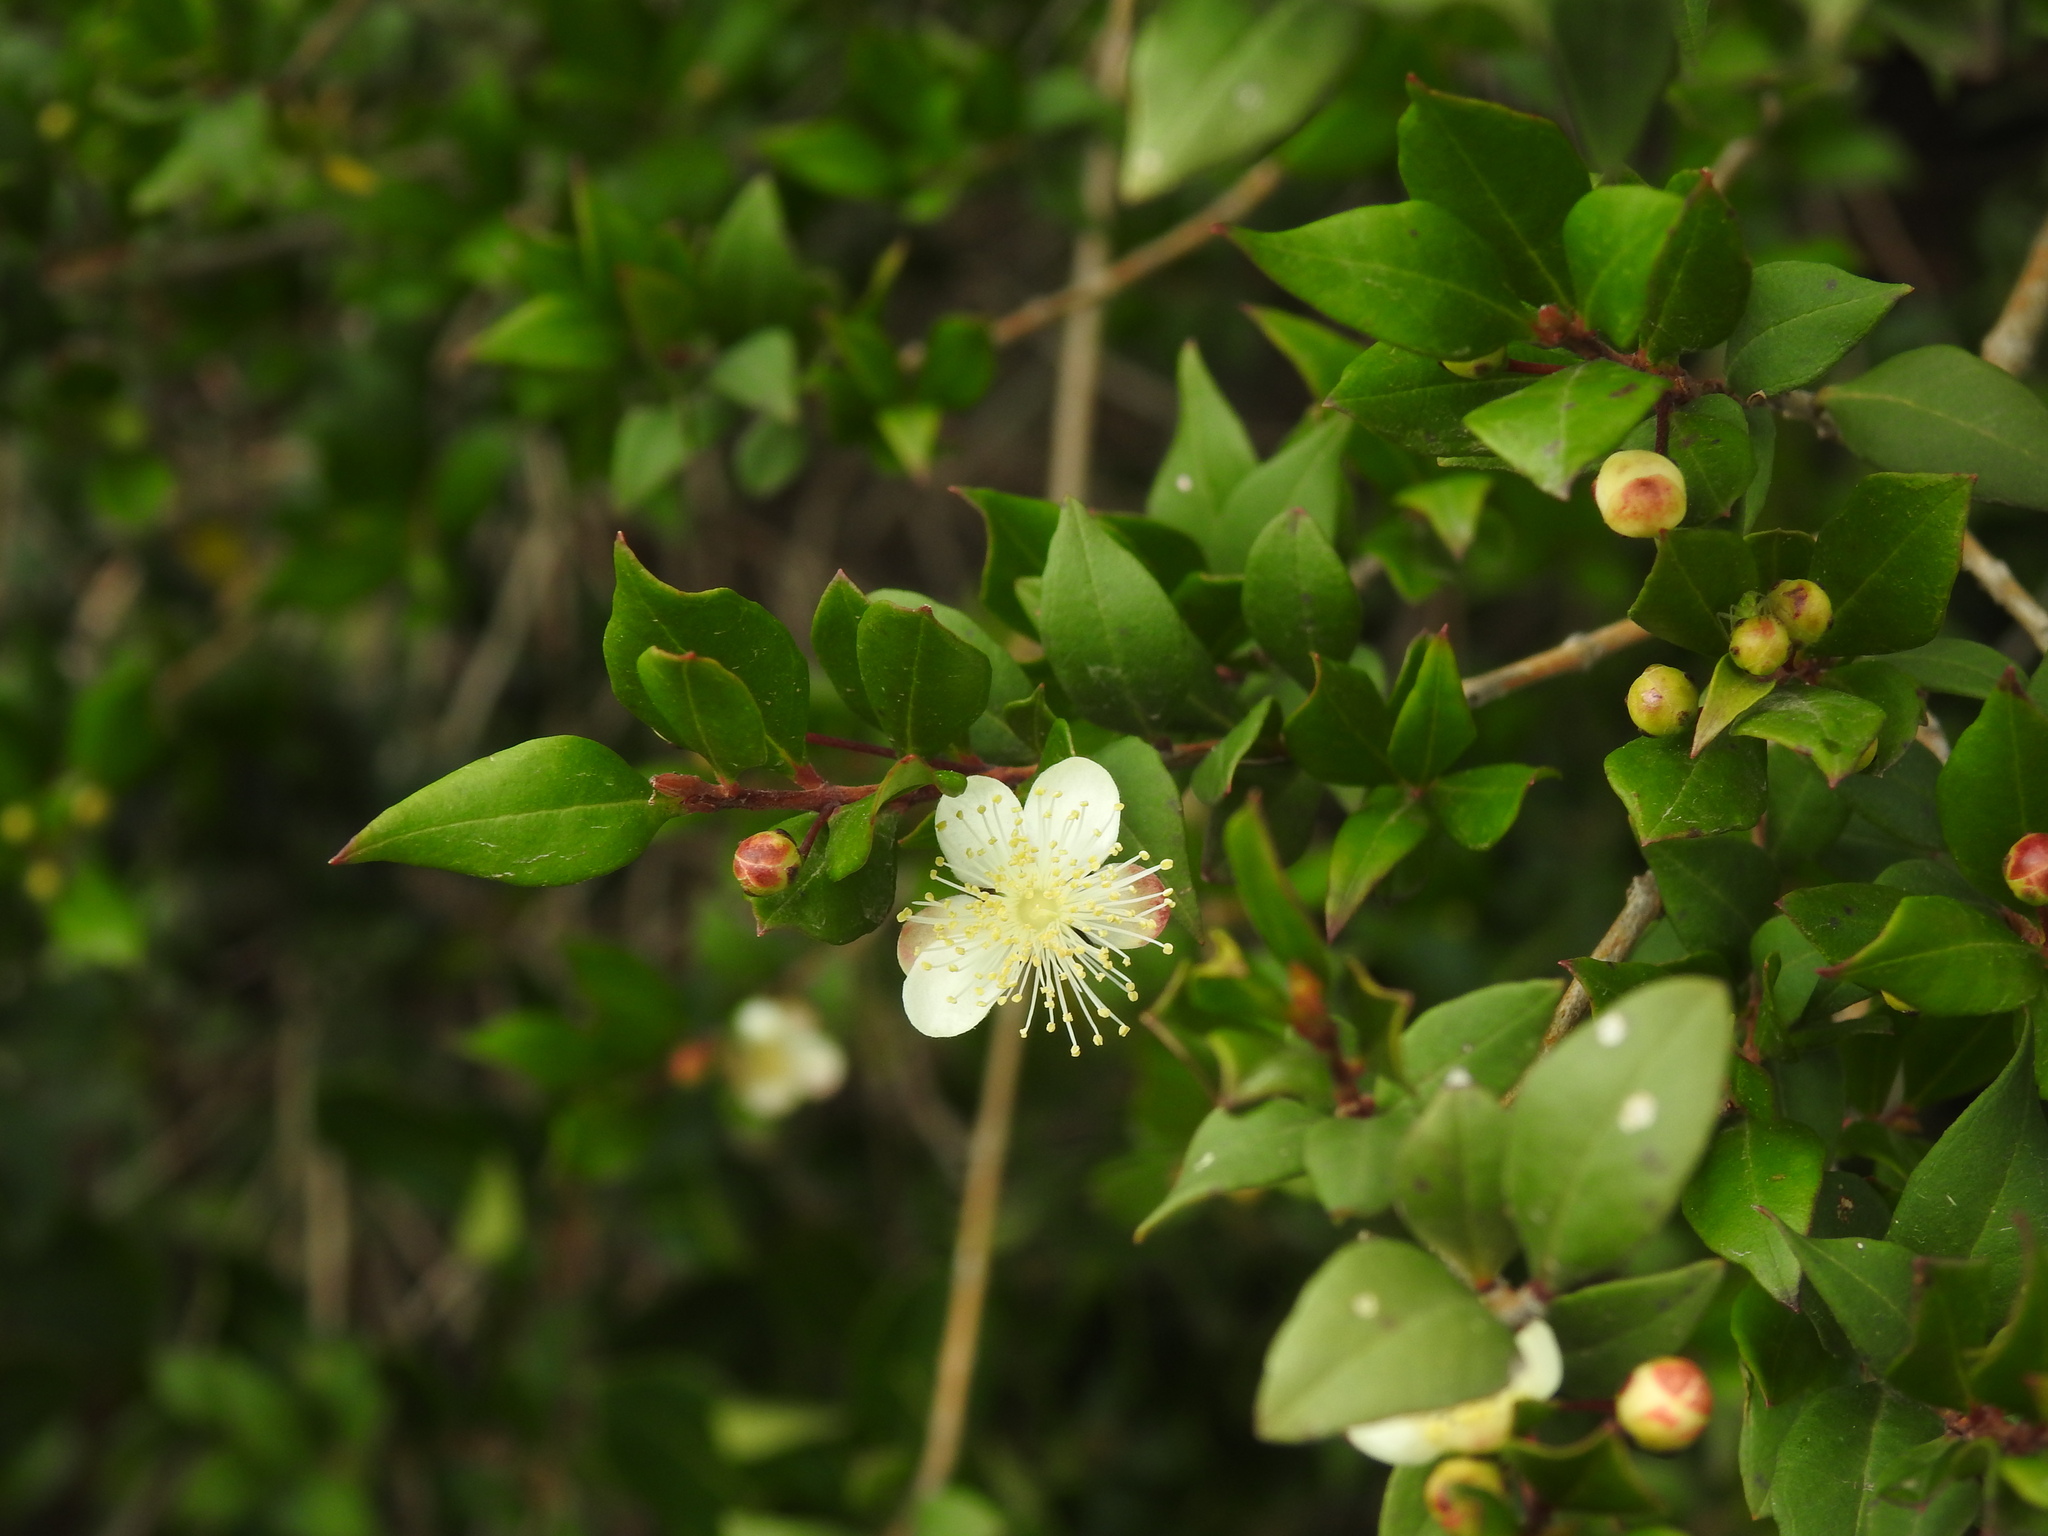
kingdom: Plantae
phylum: Tracheophyta
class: Magnoliopsida
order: Myrtales
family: Myrtaceae
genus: Myrtus
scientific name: Myrtus communis
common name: Myrtle
